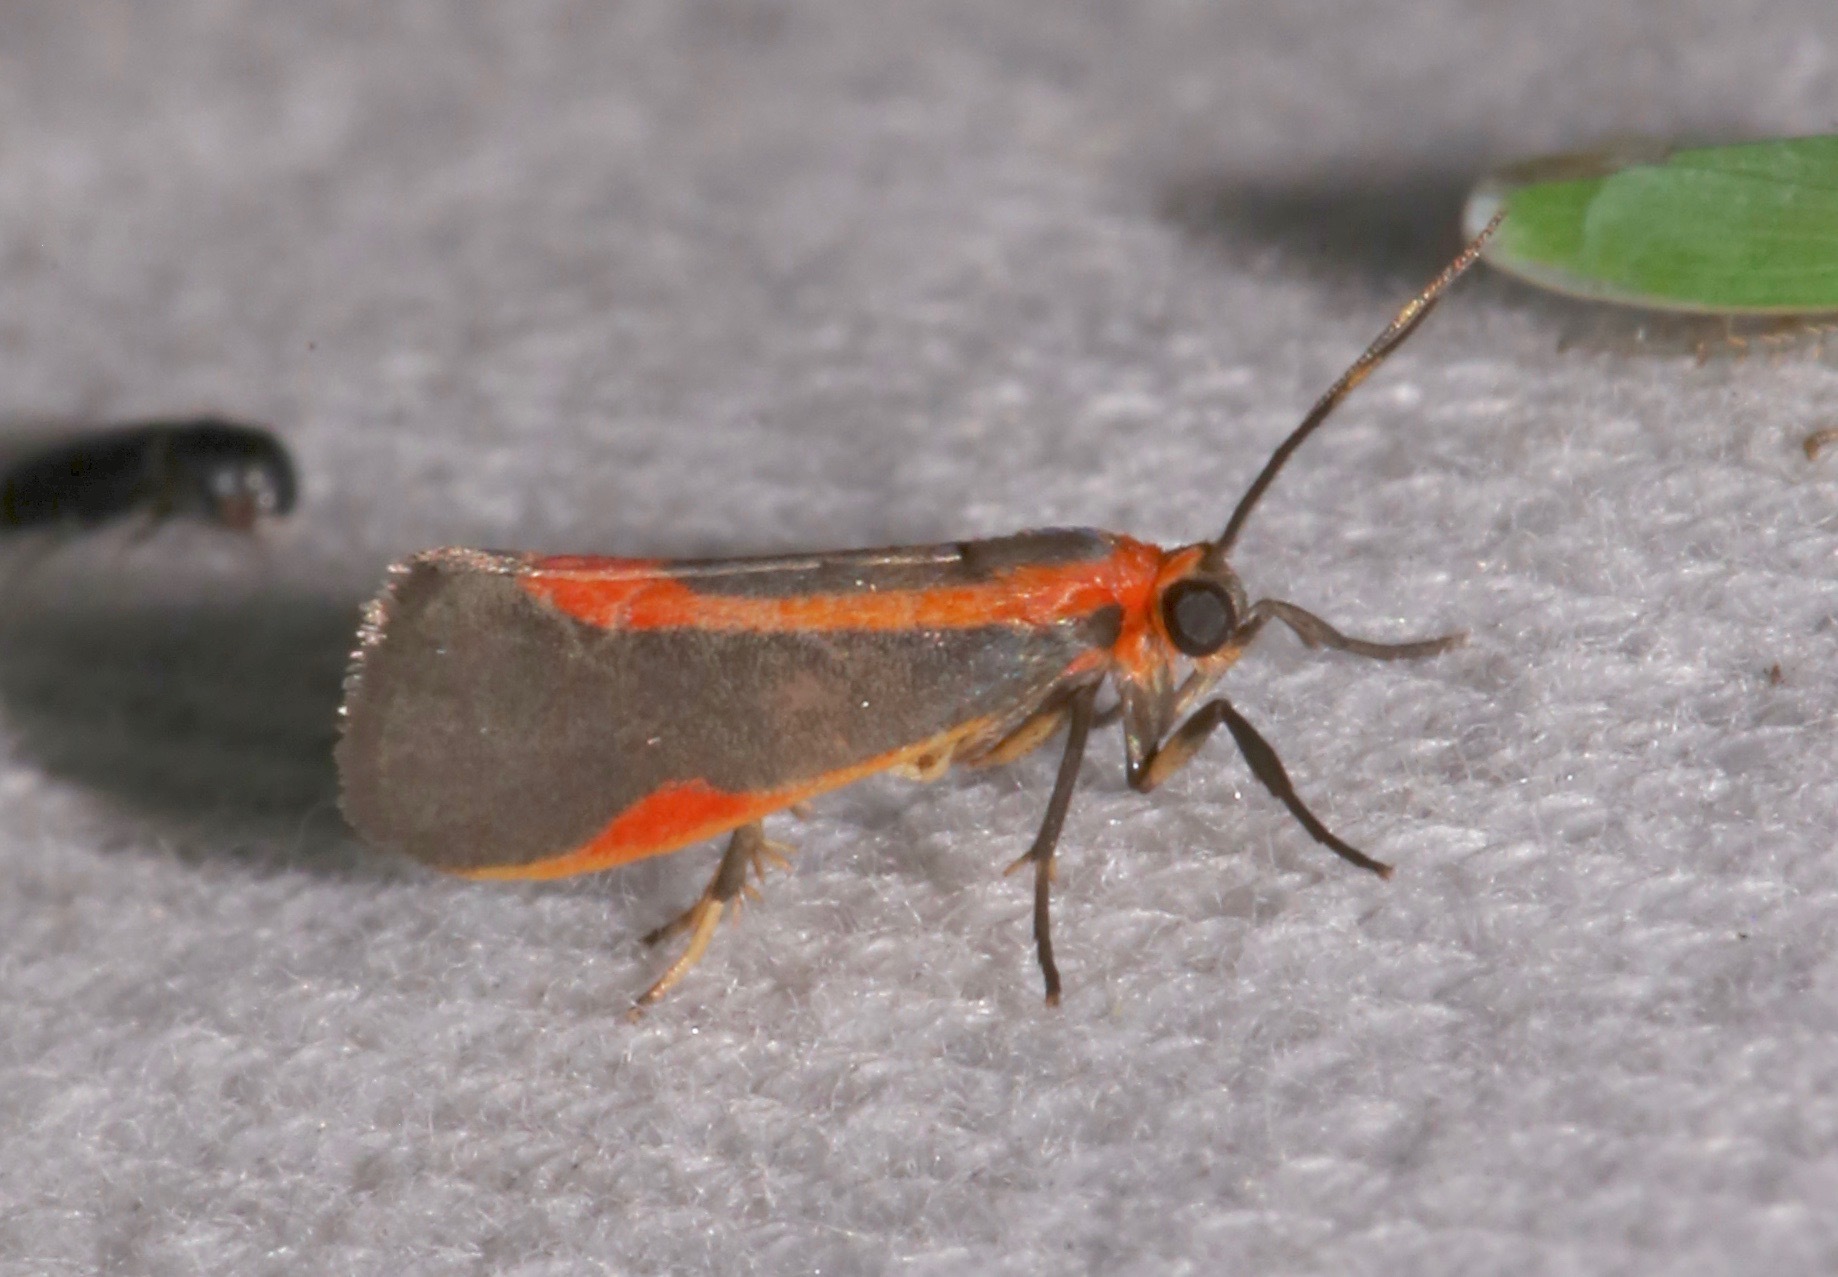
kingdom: Animalia
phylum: Arthropoda
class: Insecta
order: Lepidoptera
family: Erebidae
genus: Cisthene
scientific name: Cisthene subjecta
